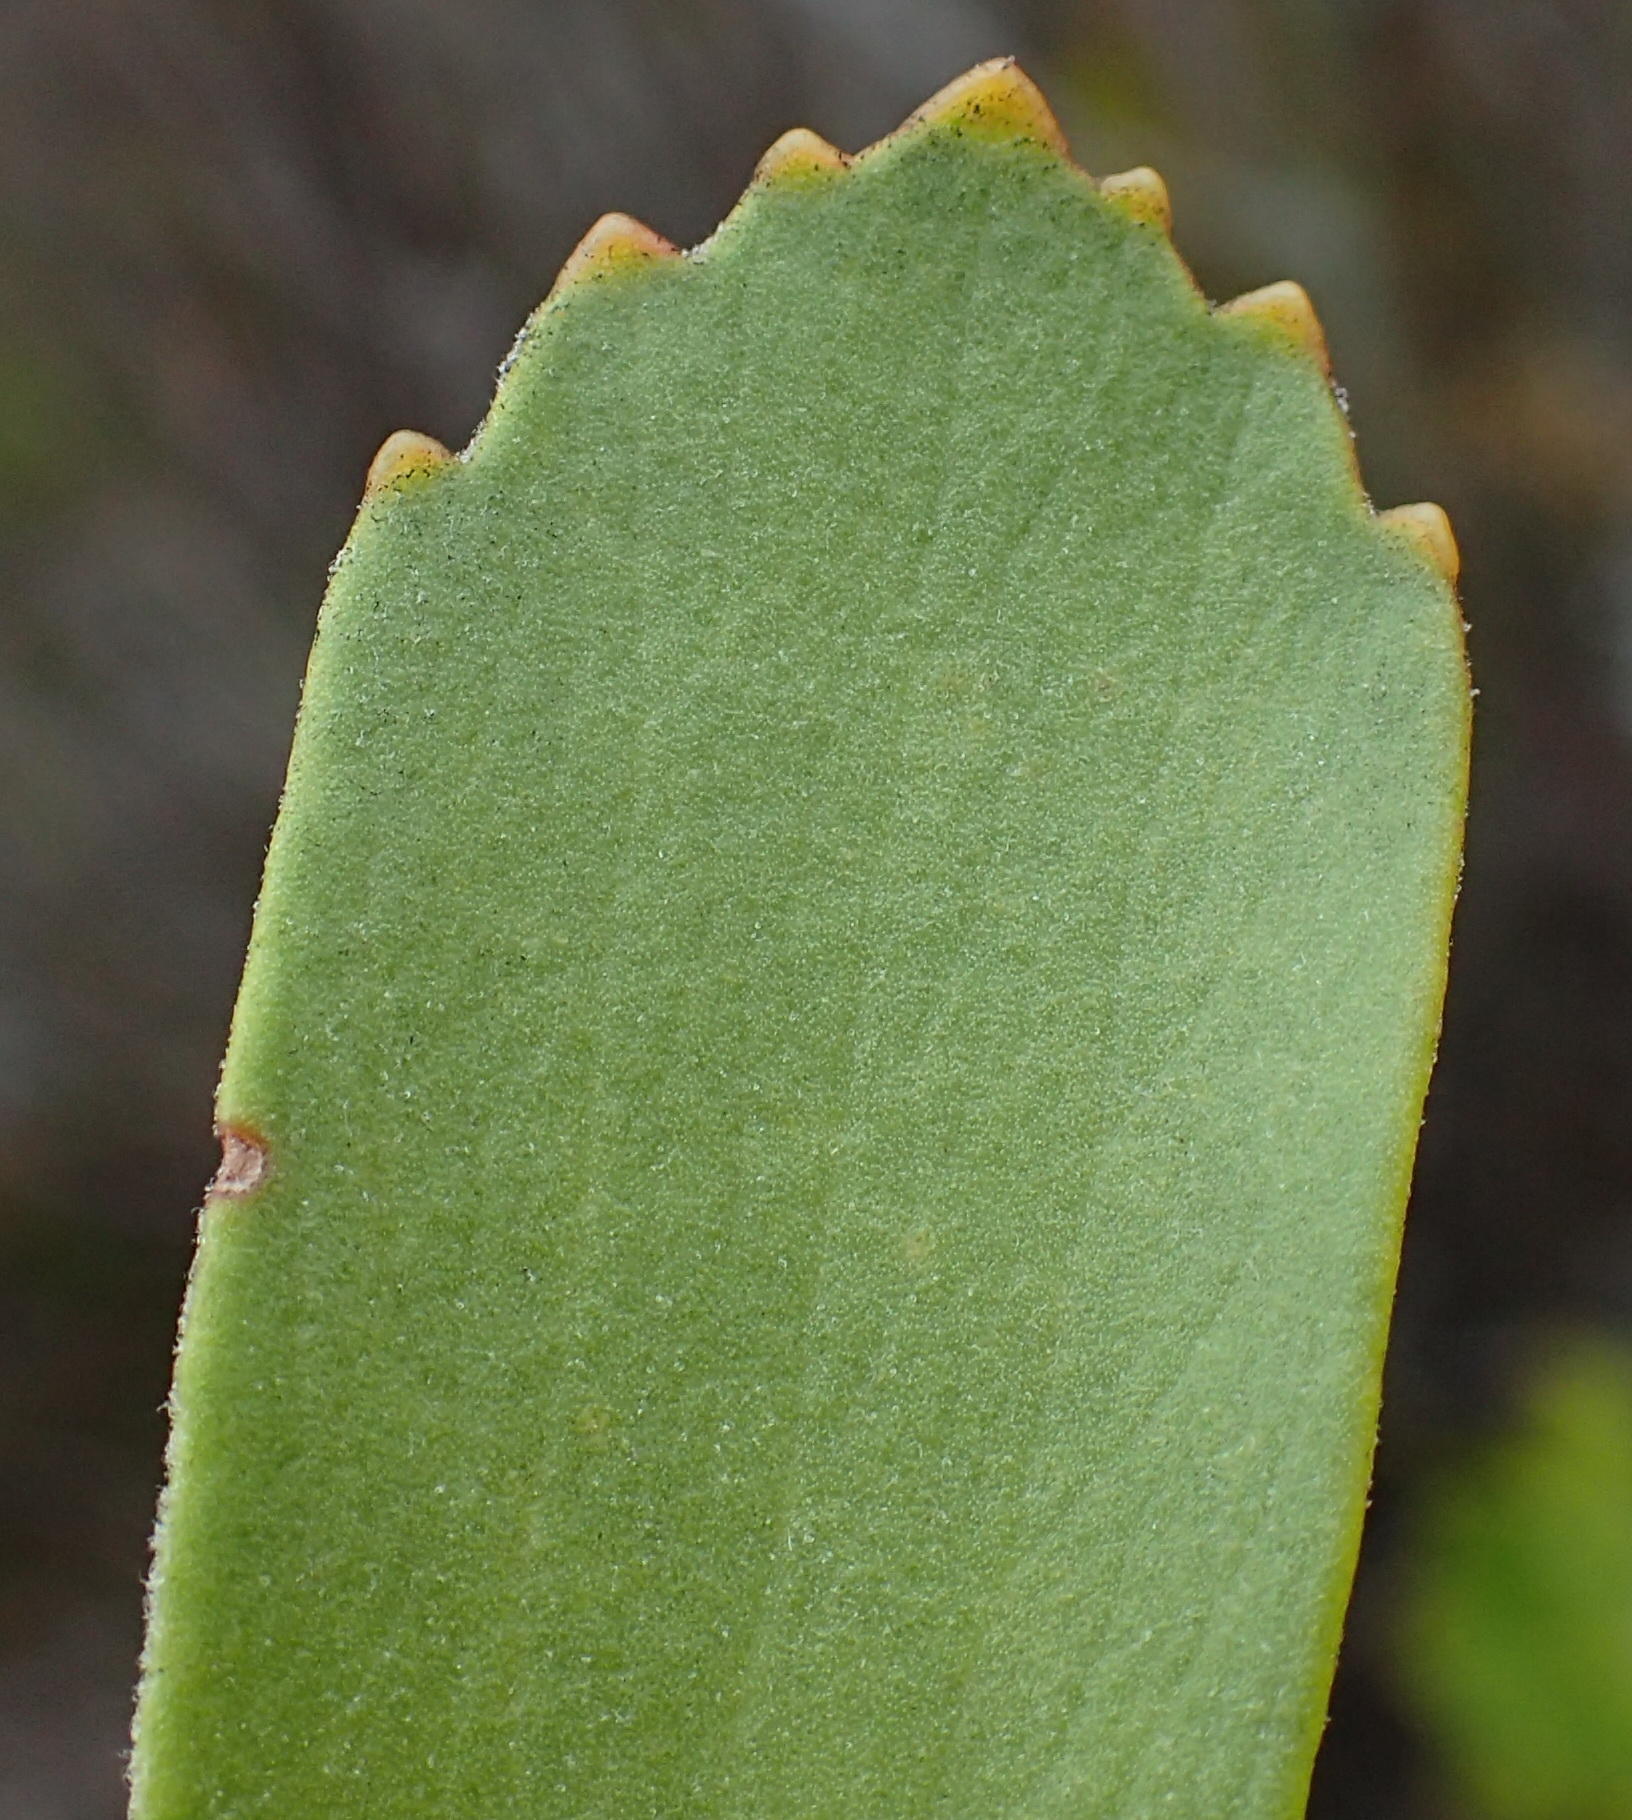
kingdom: Plantae
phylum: Tracheophyta
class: Magnoliopsida
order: Proteales
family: Proteaceae
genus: Leucospermum
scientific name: Leucospermum praecox
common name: Mossel bay pincushion
